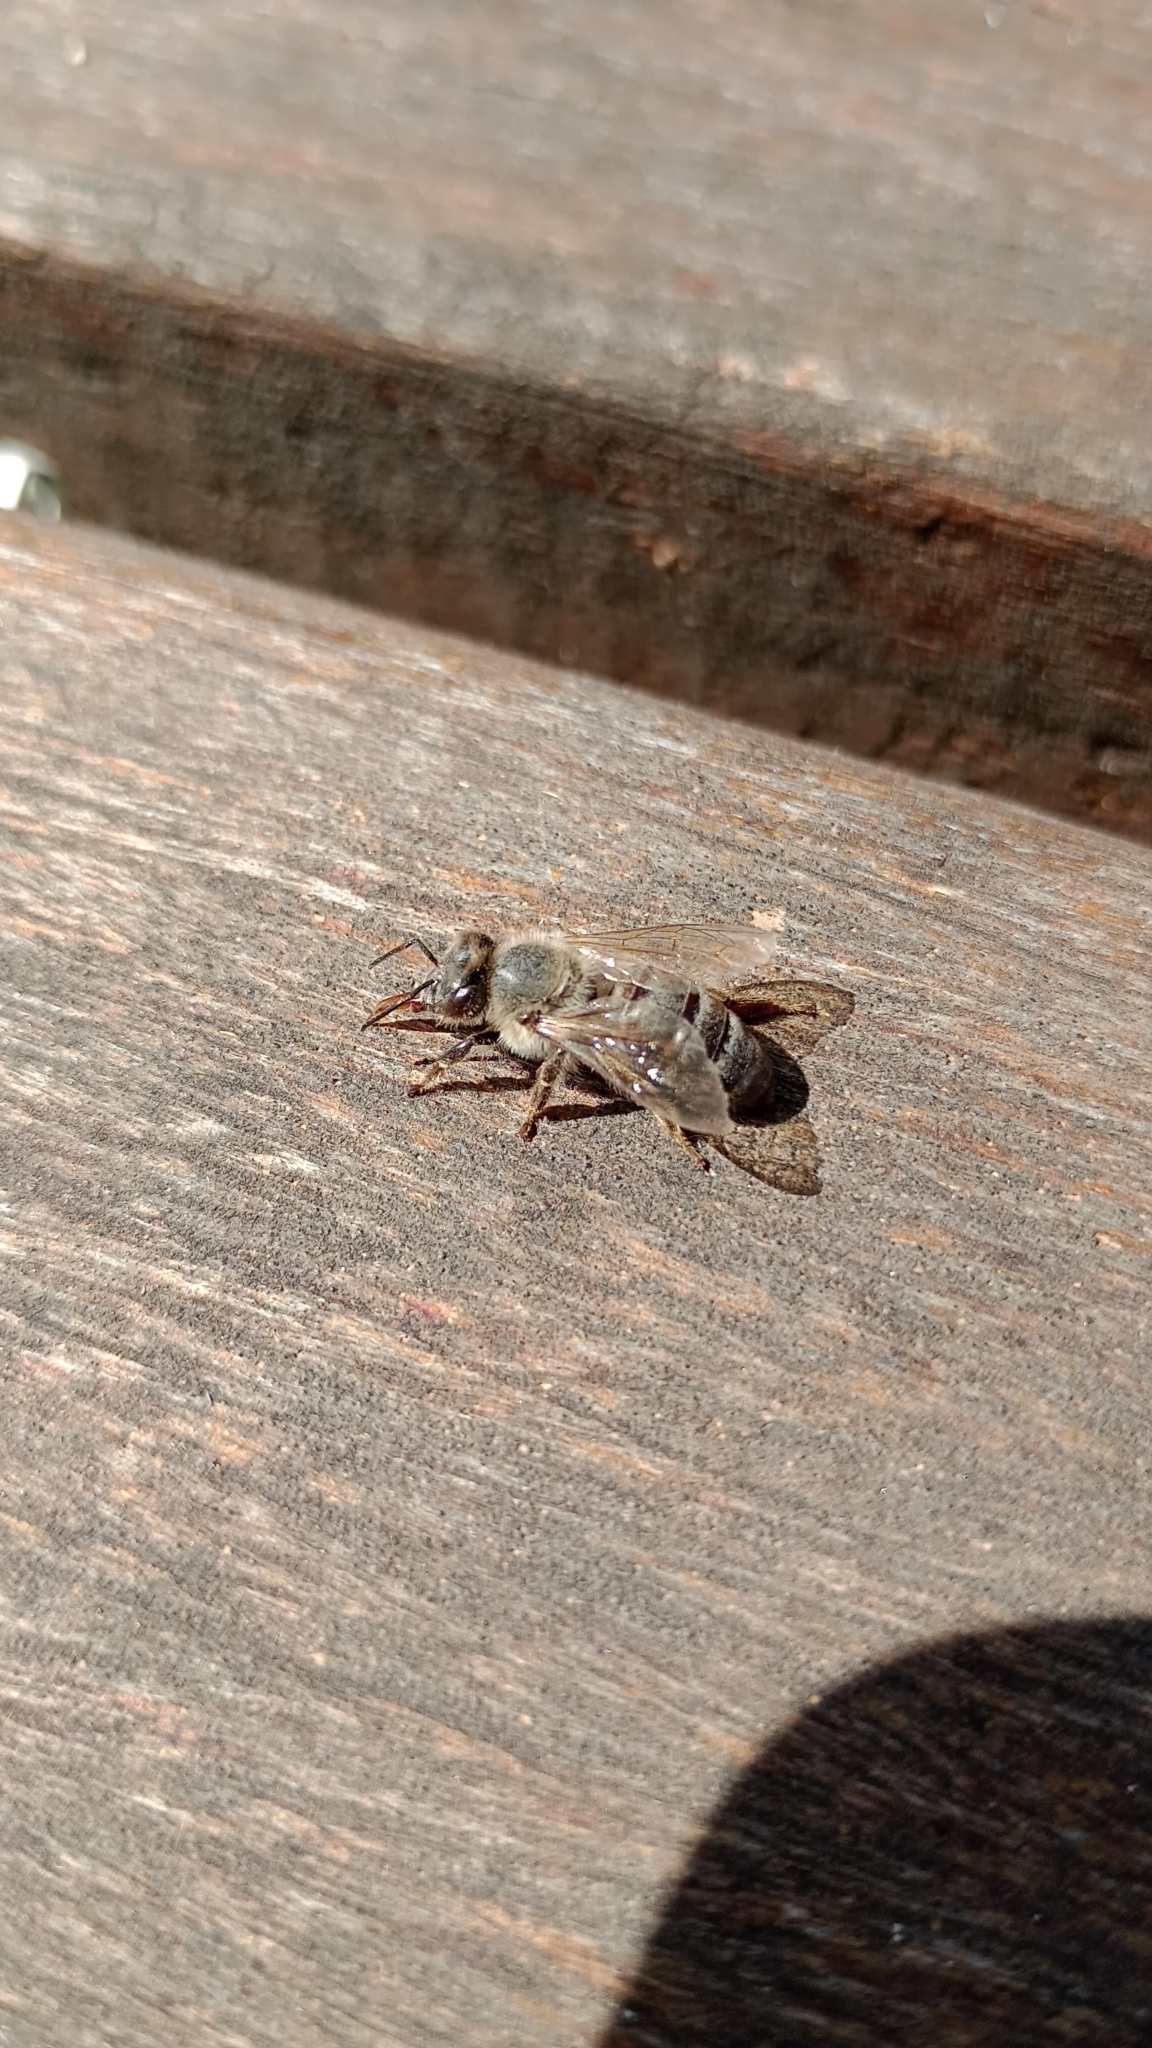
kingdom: Animalia
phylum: Arthropoda
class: Insecta
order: Hymenoptera
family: Apidae
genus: Apis
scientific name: Apis mellifera
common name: Honey bee
